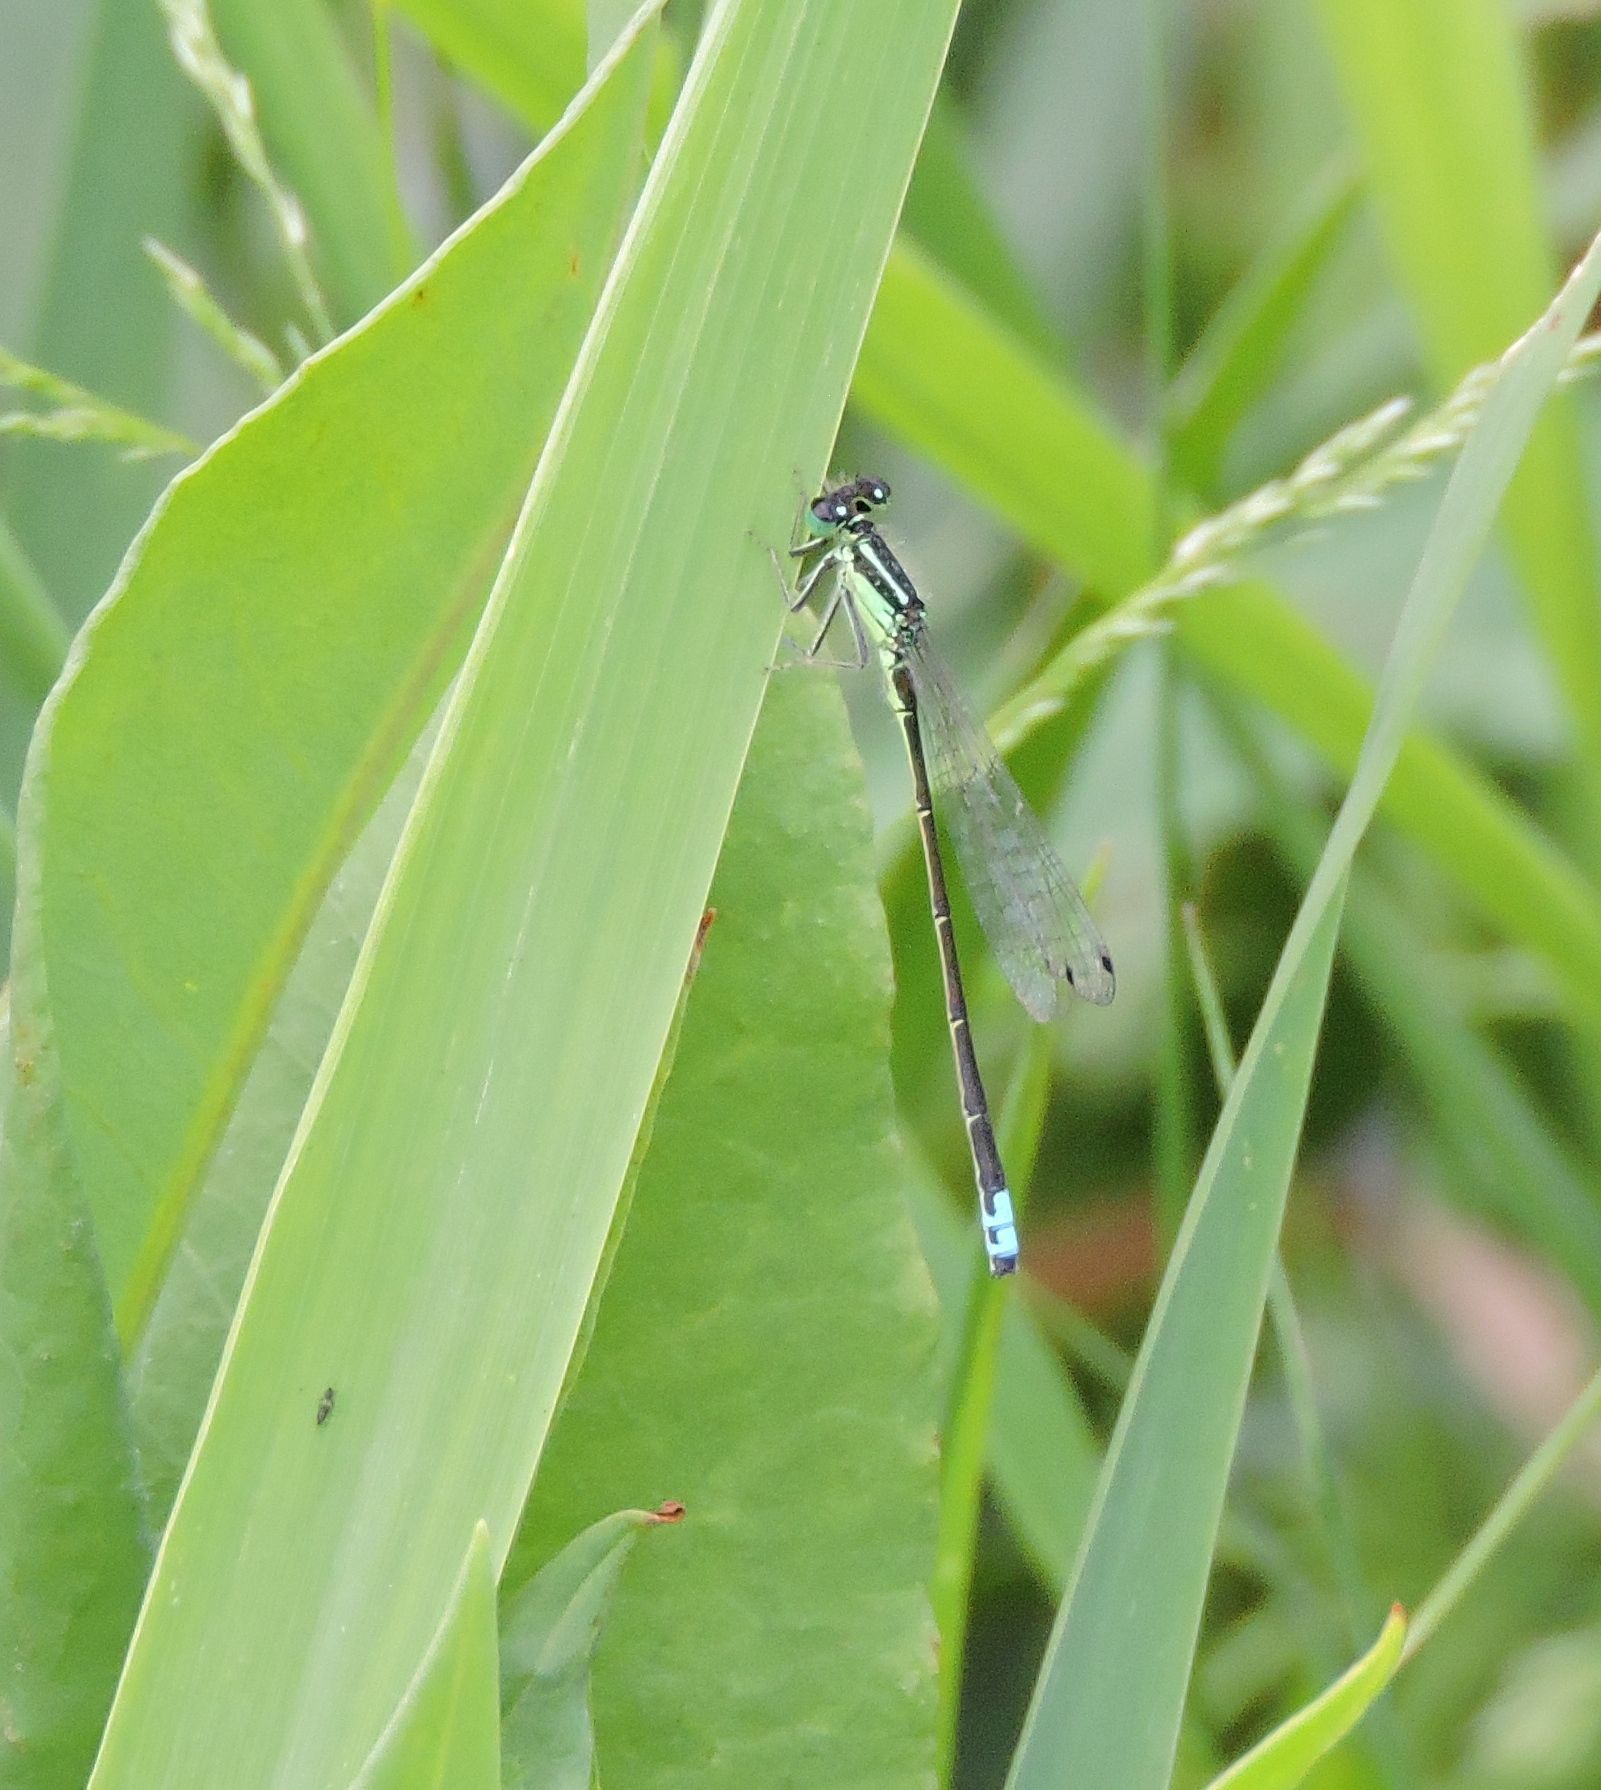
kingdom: Animalia
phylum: Arthropoda
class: Insecta
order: Odonata
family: Coenagrionidae
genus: Ischnura
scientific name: Ischnura verticalis
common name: Eastern forktail
